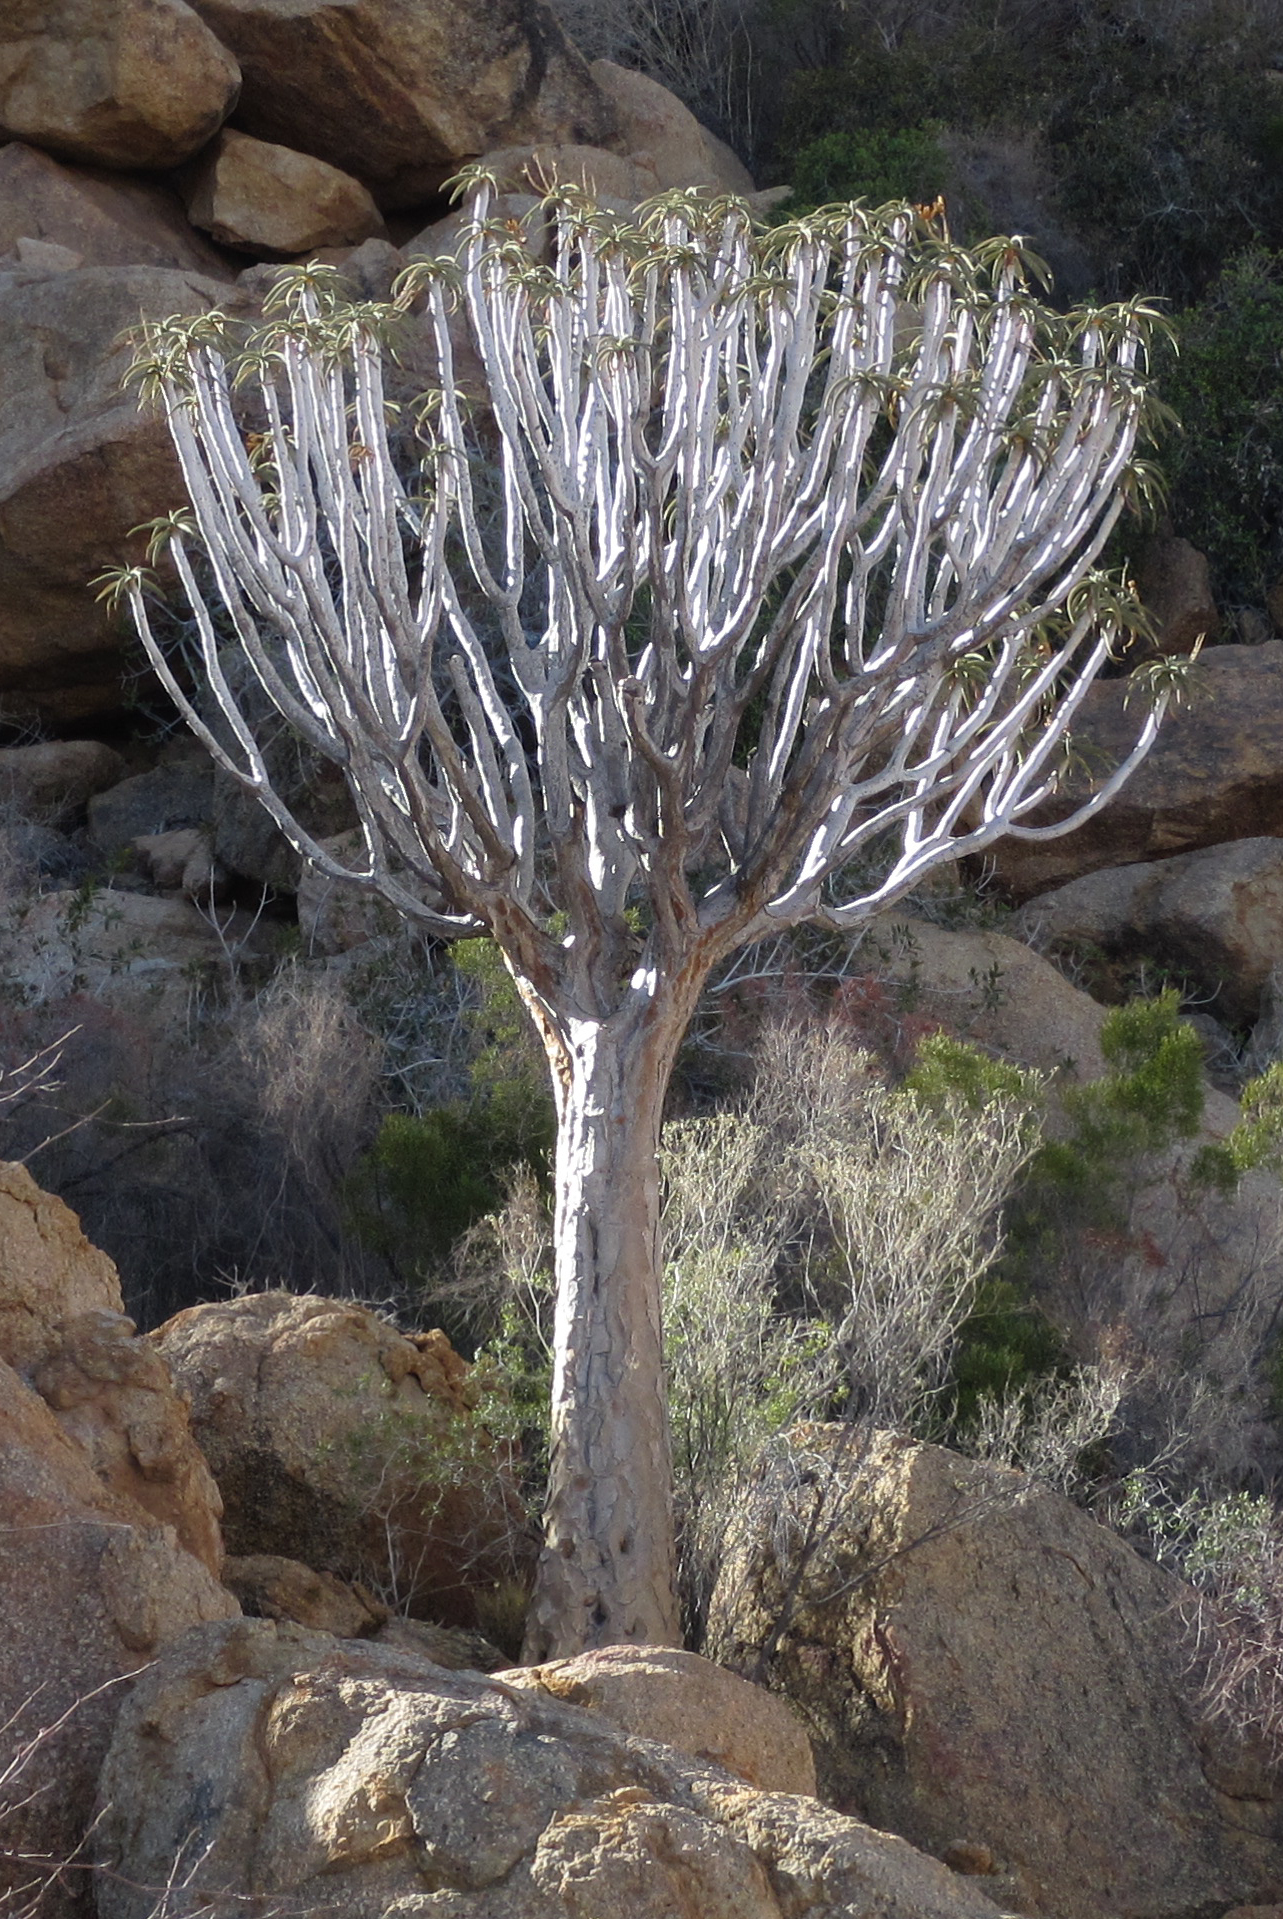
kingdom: Plantae
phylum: Tracheophyta
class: Liliopsida
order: Asparagales
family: Asphodelaceae
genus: Aloidendron
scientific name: Aloidendron dichotomum
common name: Quiver tree
